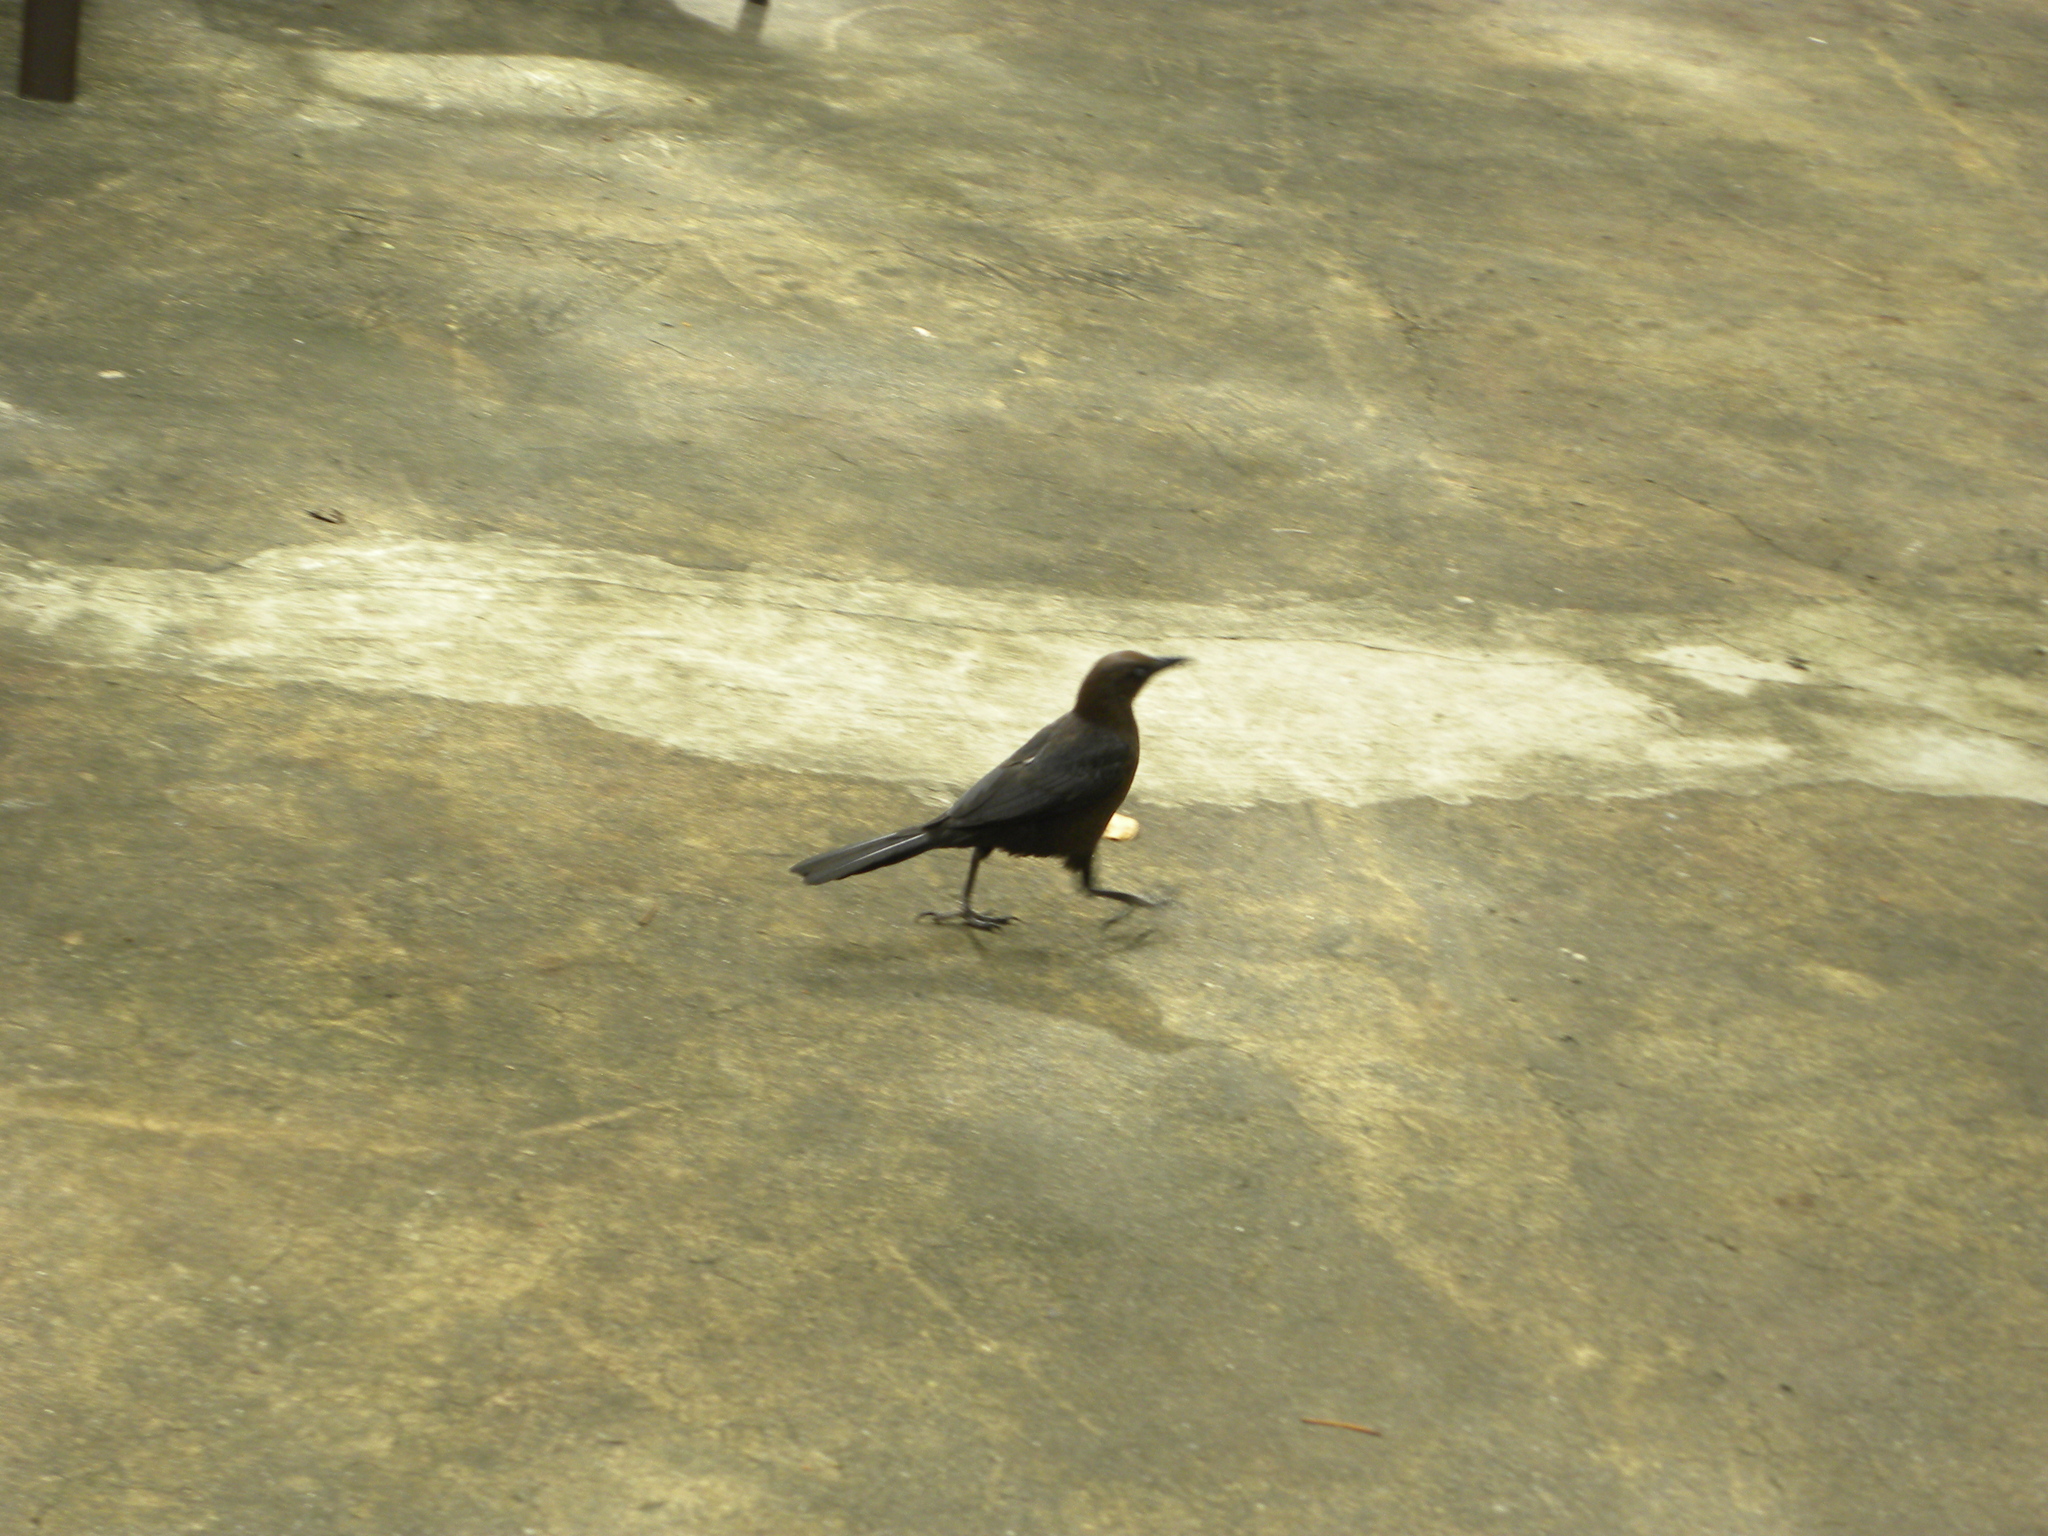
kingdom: Animalia
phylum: Chordata
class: Aves
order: Passeriformes
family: Icteridae
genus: Quiscalus
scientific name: Quiscalus mexicanus
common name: Great-tailed grackle
